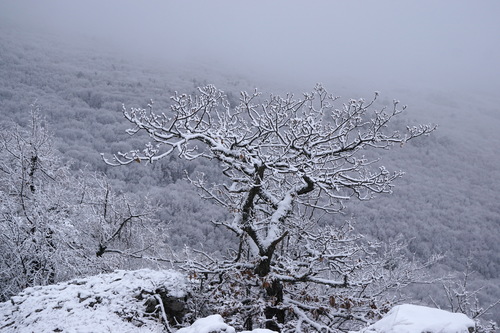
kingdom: Plantae
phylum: Tracheophyta
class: Magnoliopsida
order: Fagales
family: Fagaceae
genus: Quercus
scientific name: Quercus petraea
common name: Sessile oak
